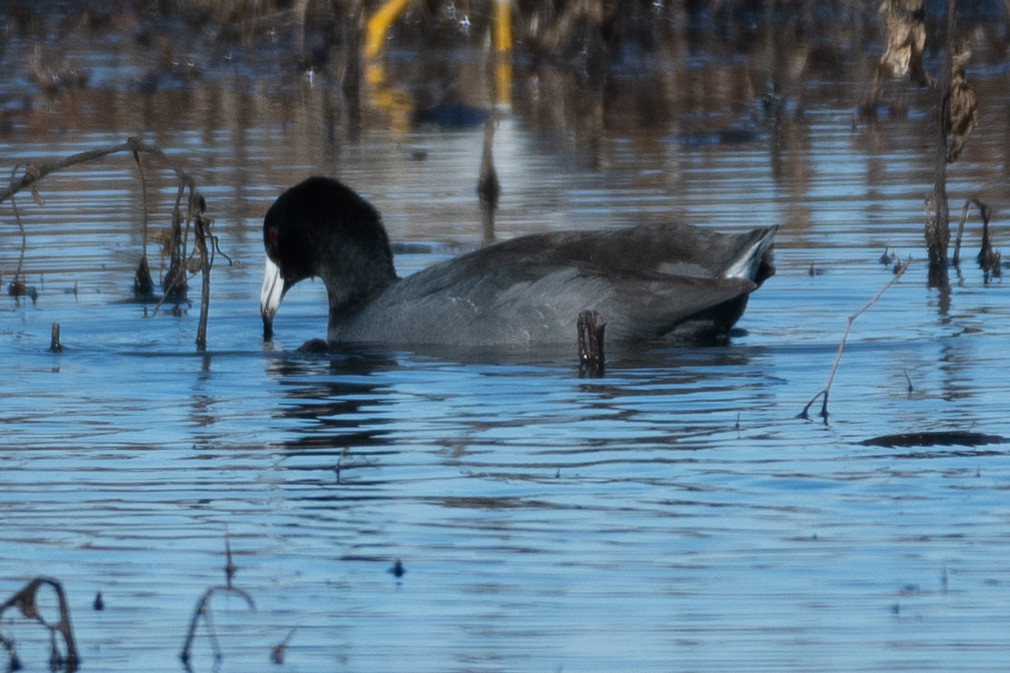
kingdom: Animalia
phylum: Chordata
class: Aves
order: Gruiformes
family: Rallidae
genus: Fulica
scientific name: Fulica americana
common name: American coot
